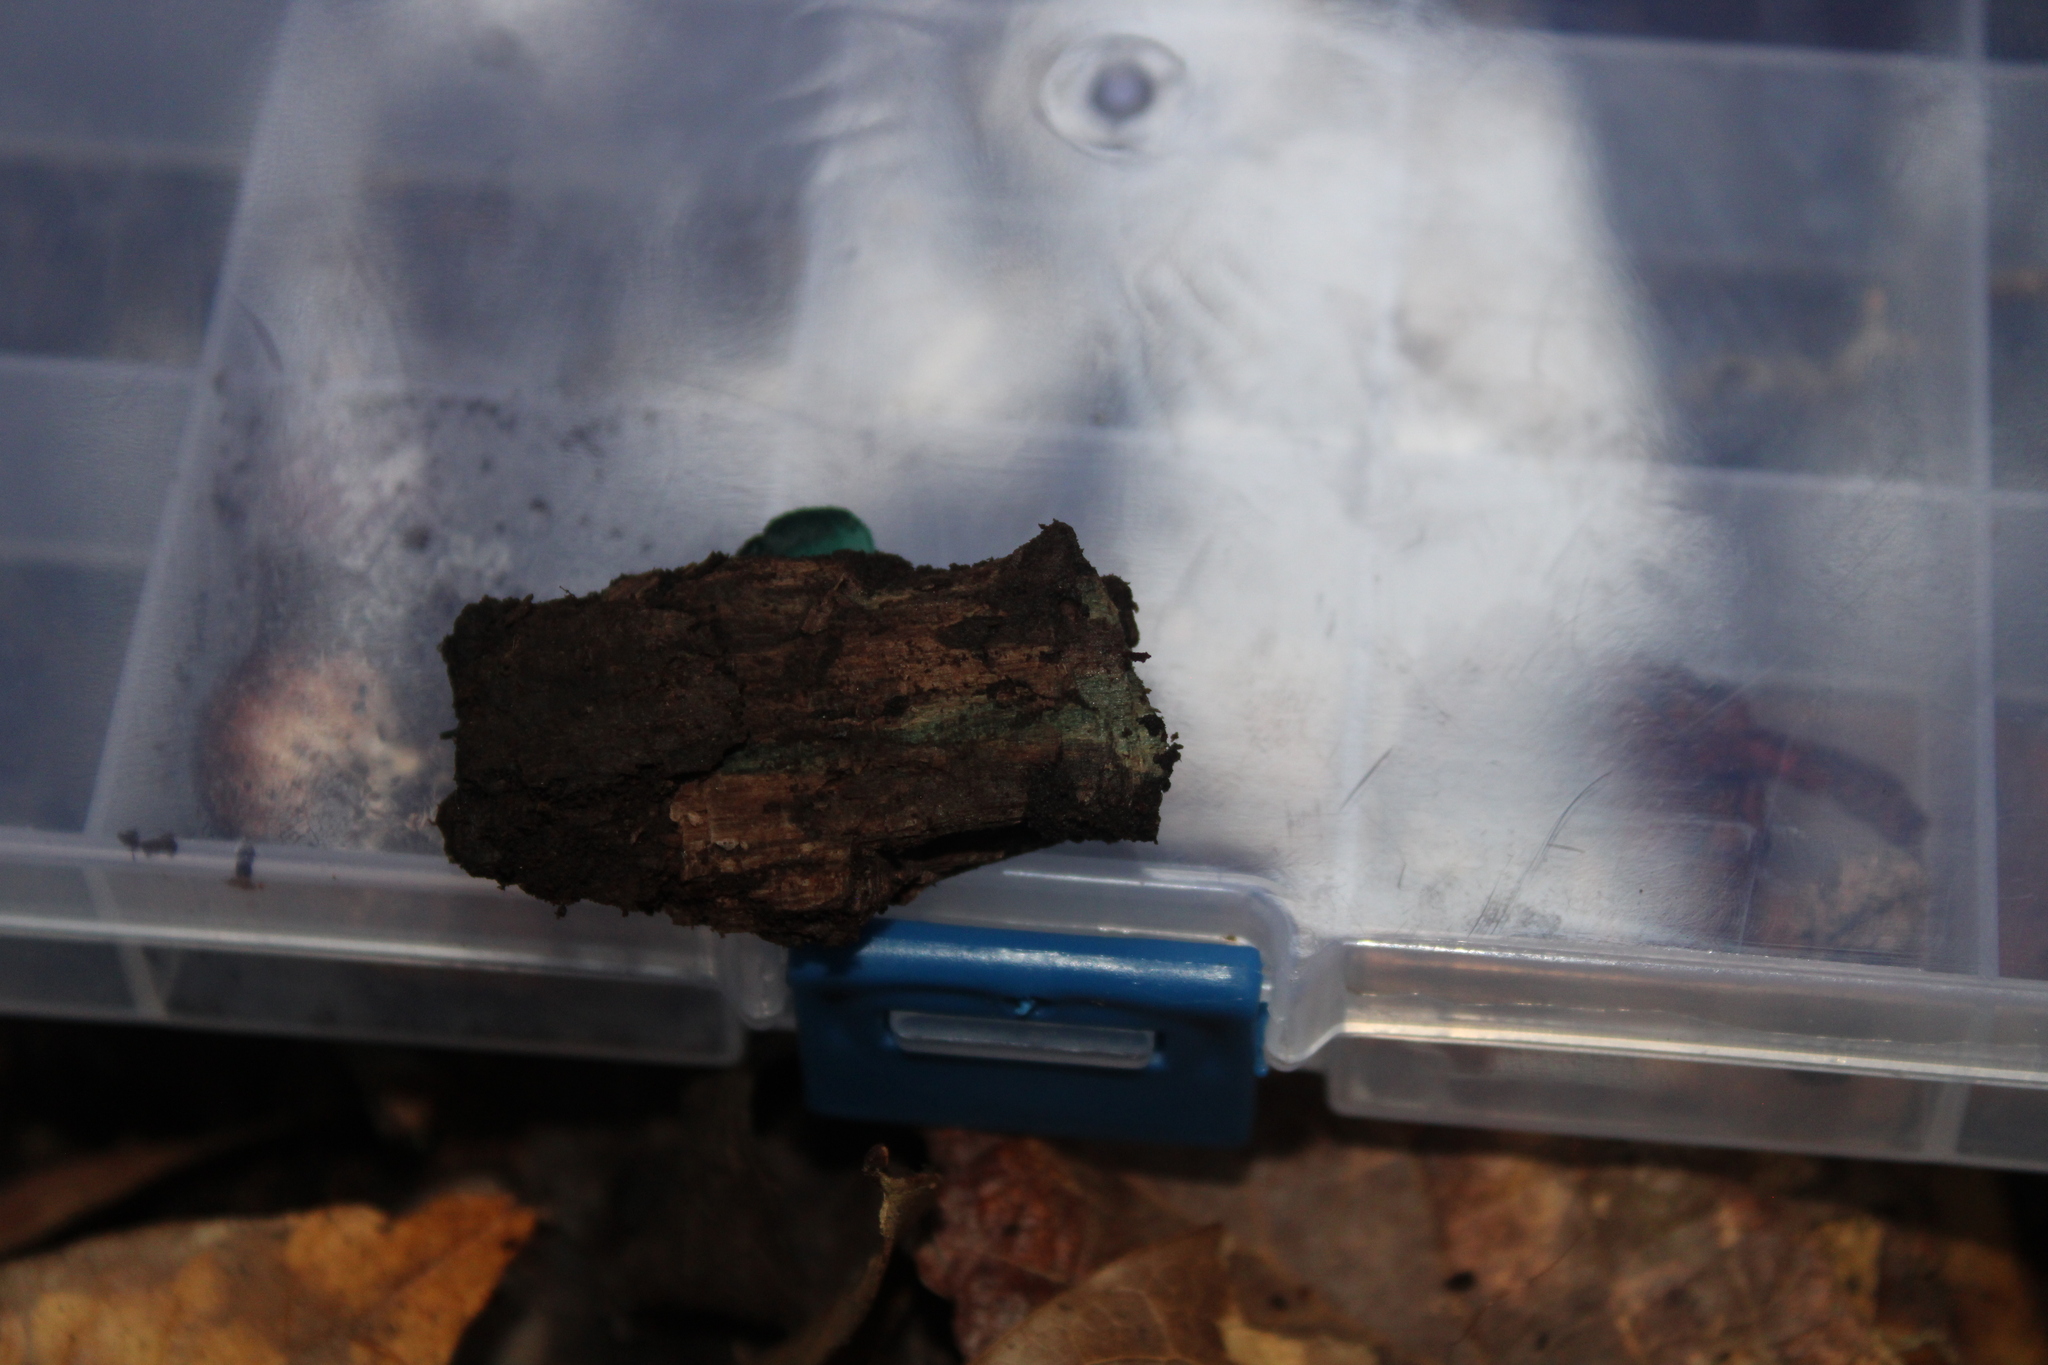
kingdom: Fungi
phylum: Ascomycota
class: Leotiomycetes
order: Helotiales
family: Chlorociboriaceae
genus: Chlorociboria
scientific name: Chlorociboria aeruginosa
